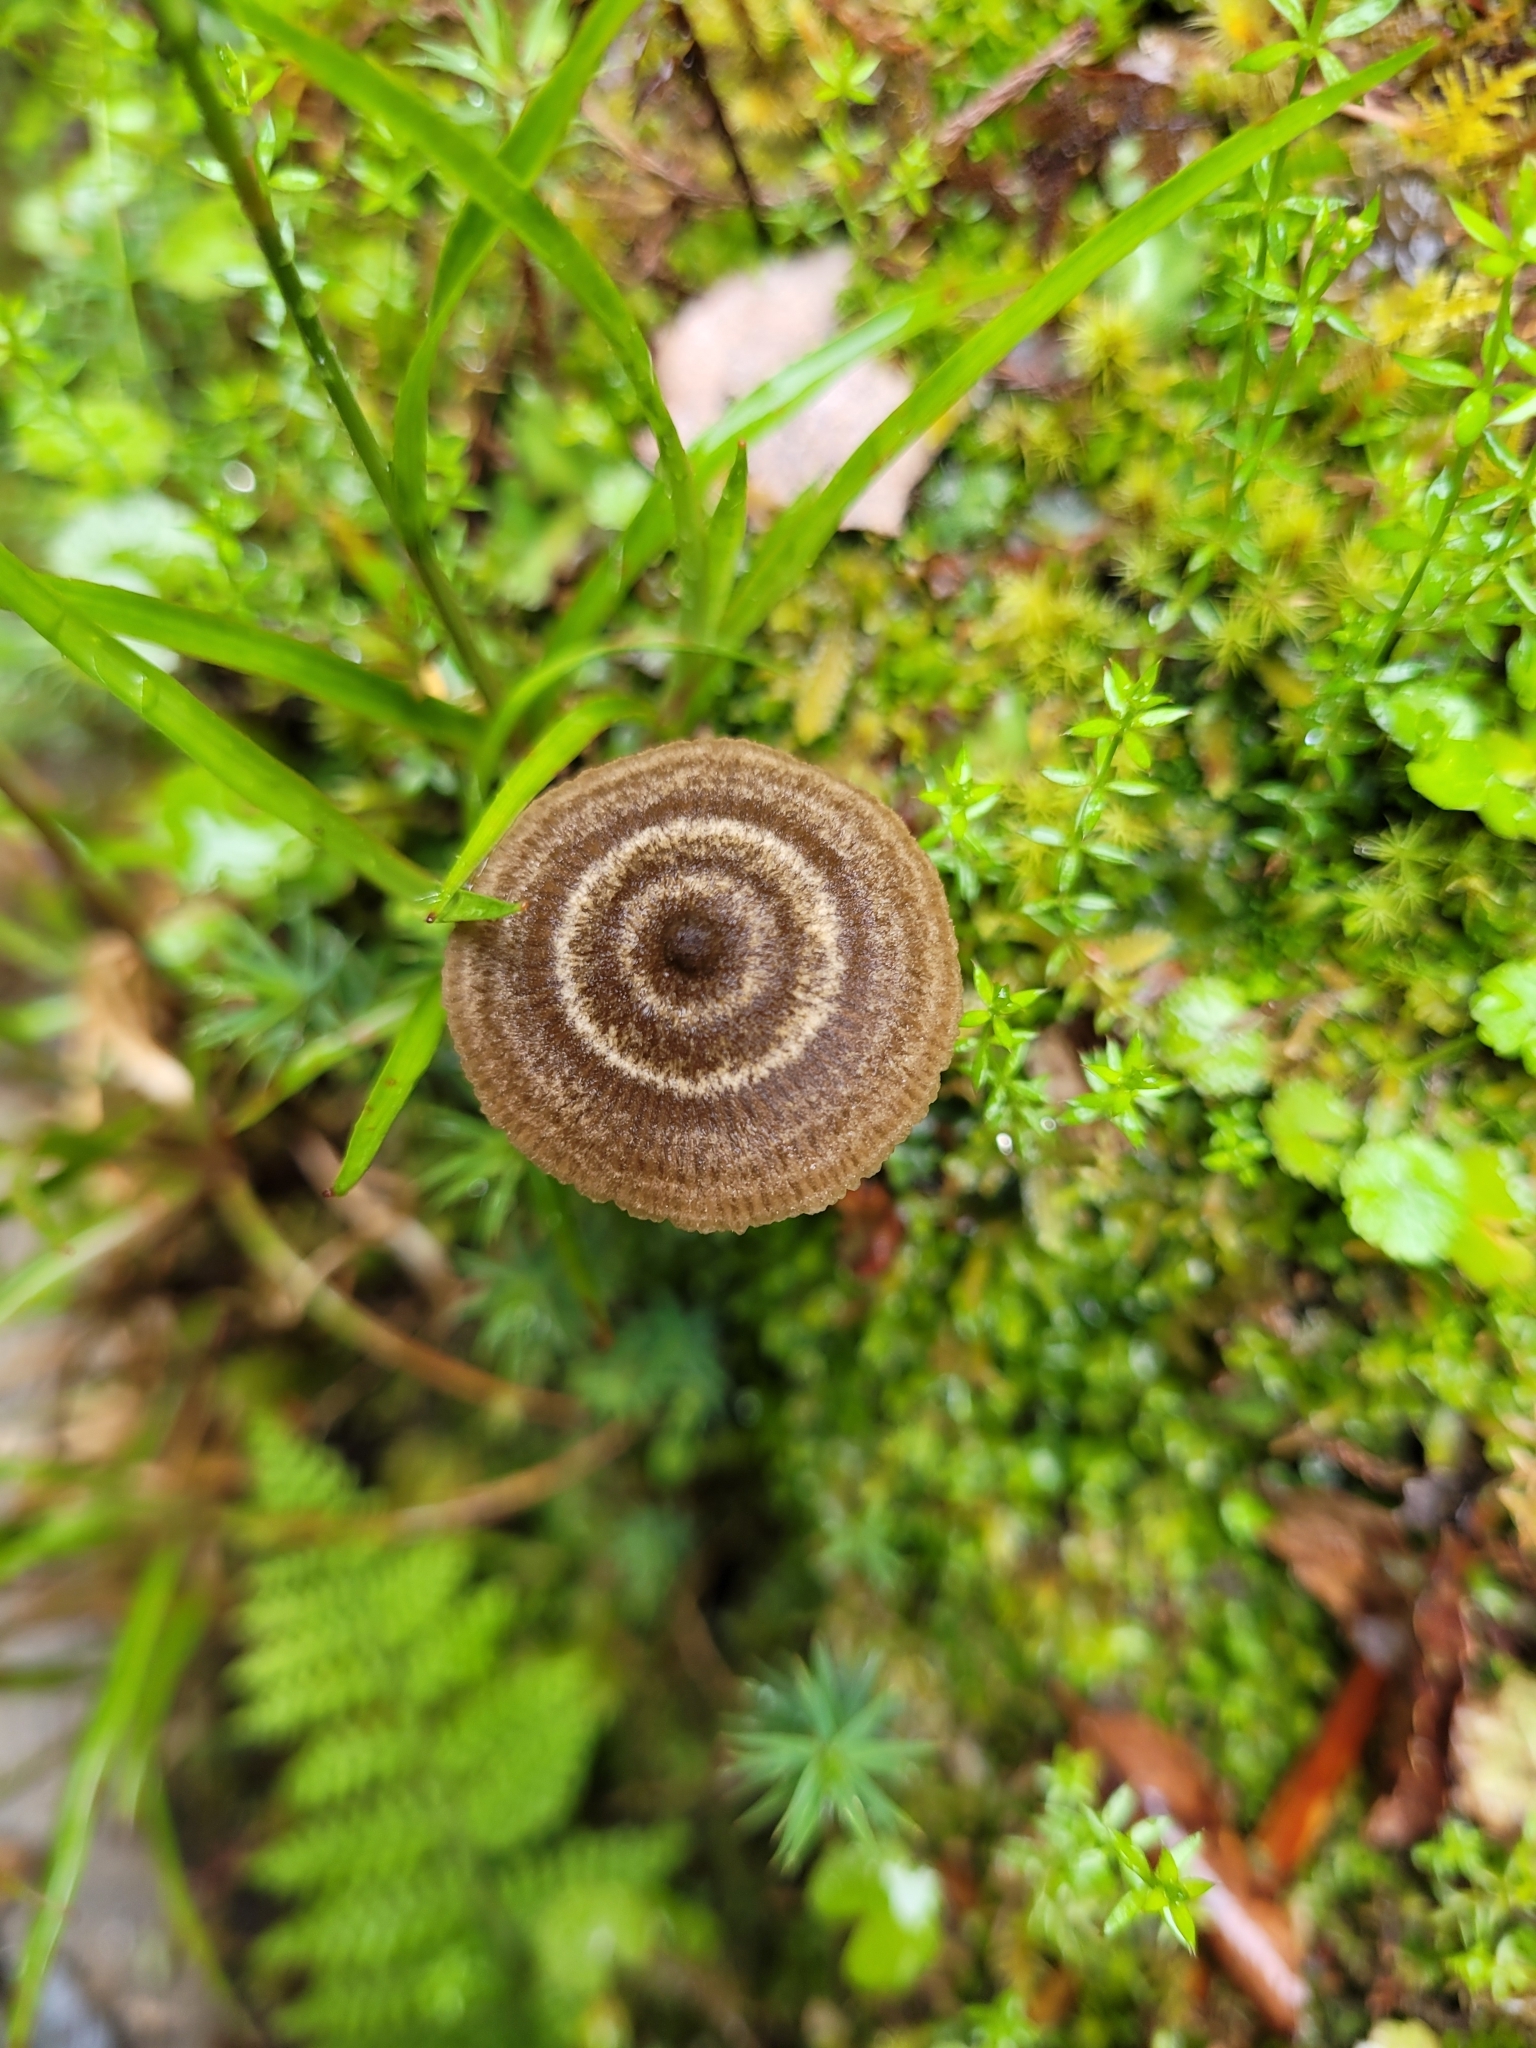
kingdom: Fungi
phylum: Basidiomycota
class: Agaricomycetes
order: Agaricales
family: Entolomataceae
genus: Entoloma
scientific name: Entoloma perzonatum
